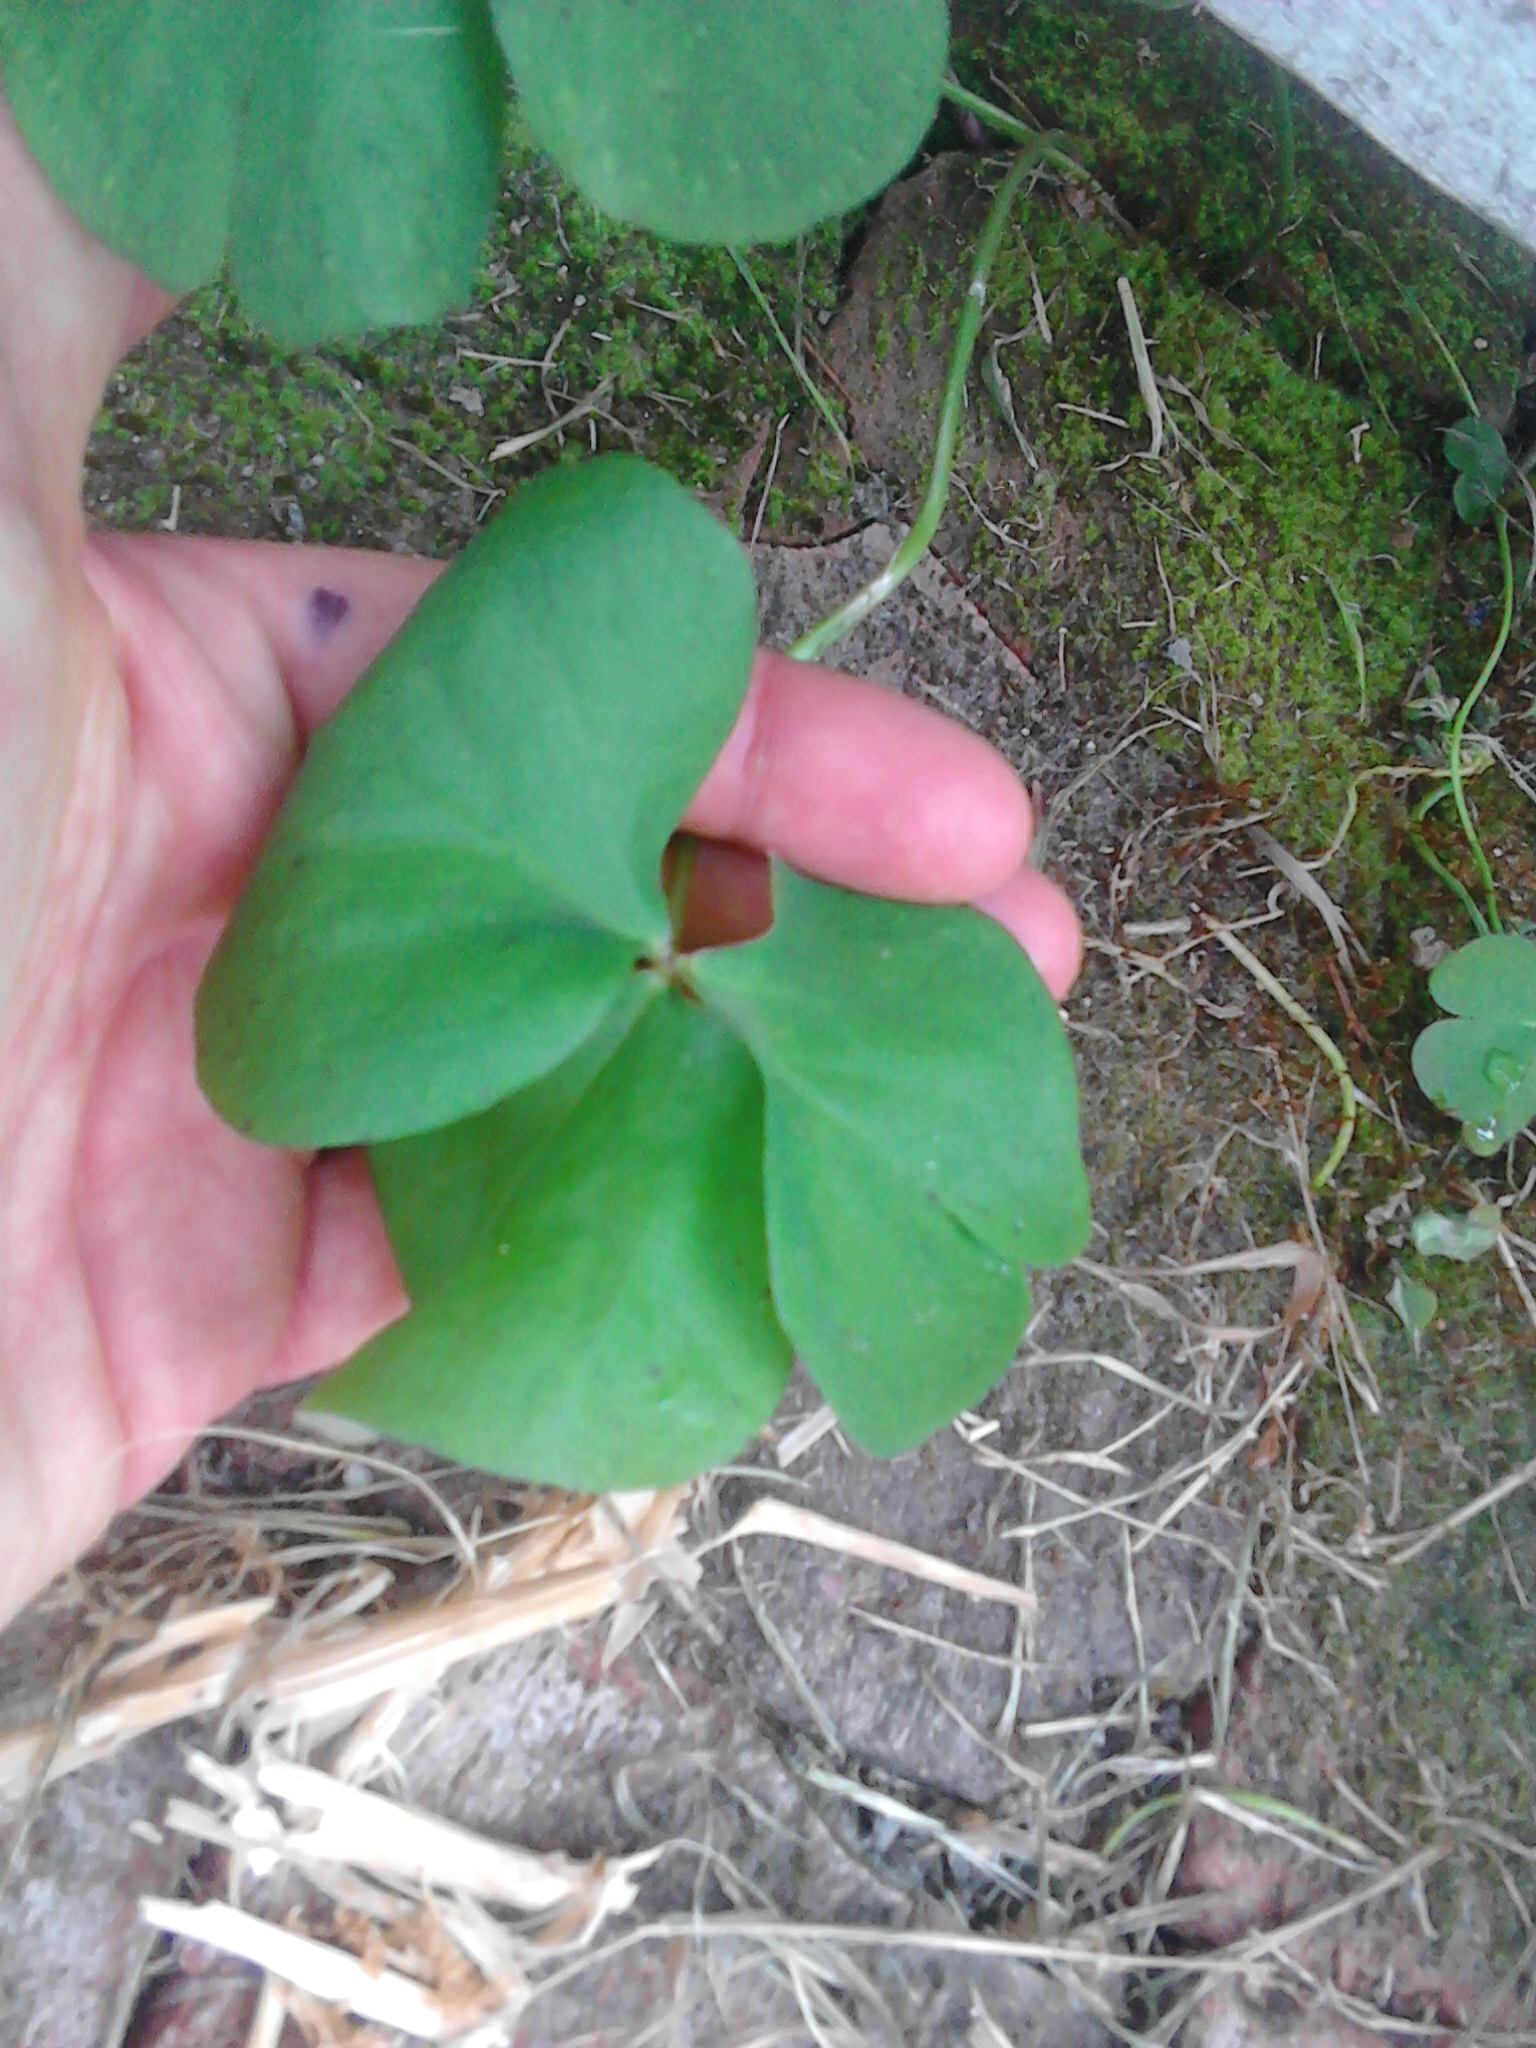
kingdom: Plantae
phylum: Tracheophyta
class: Magnoliopsida
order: Oxalidales
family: Oxalidaceae
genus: Oxalis
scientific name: Oxalis articulata
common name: Pink-sorrel
